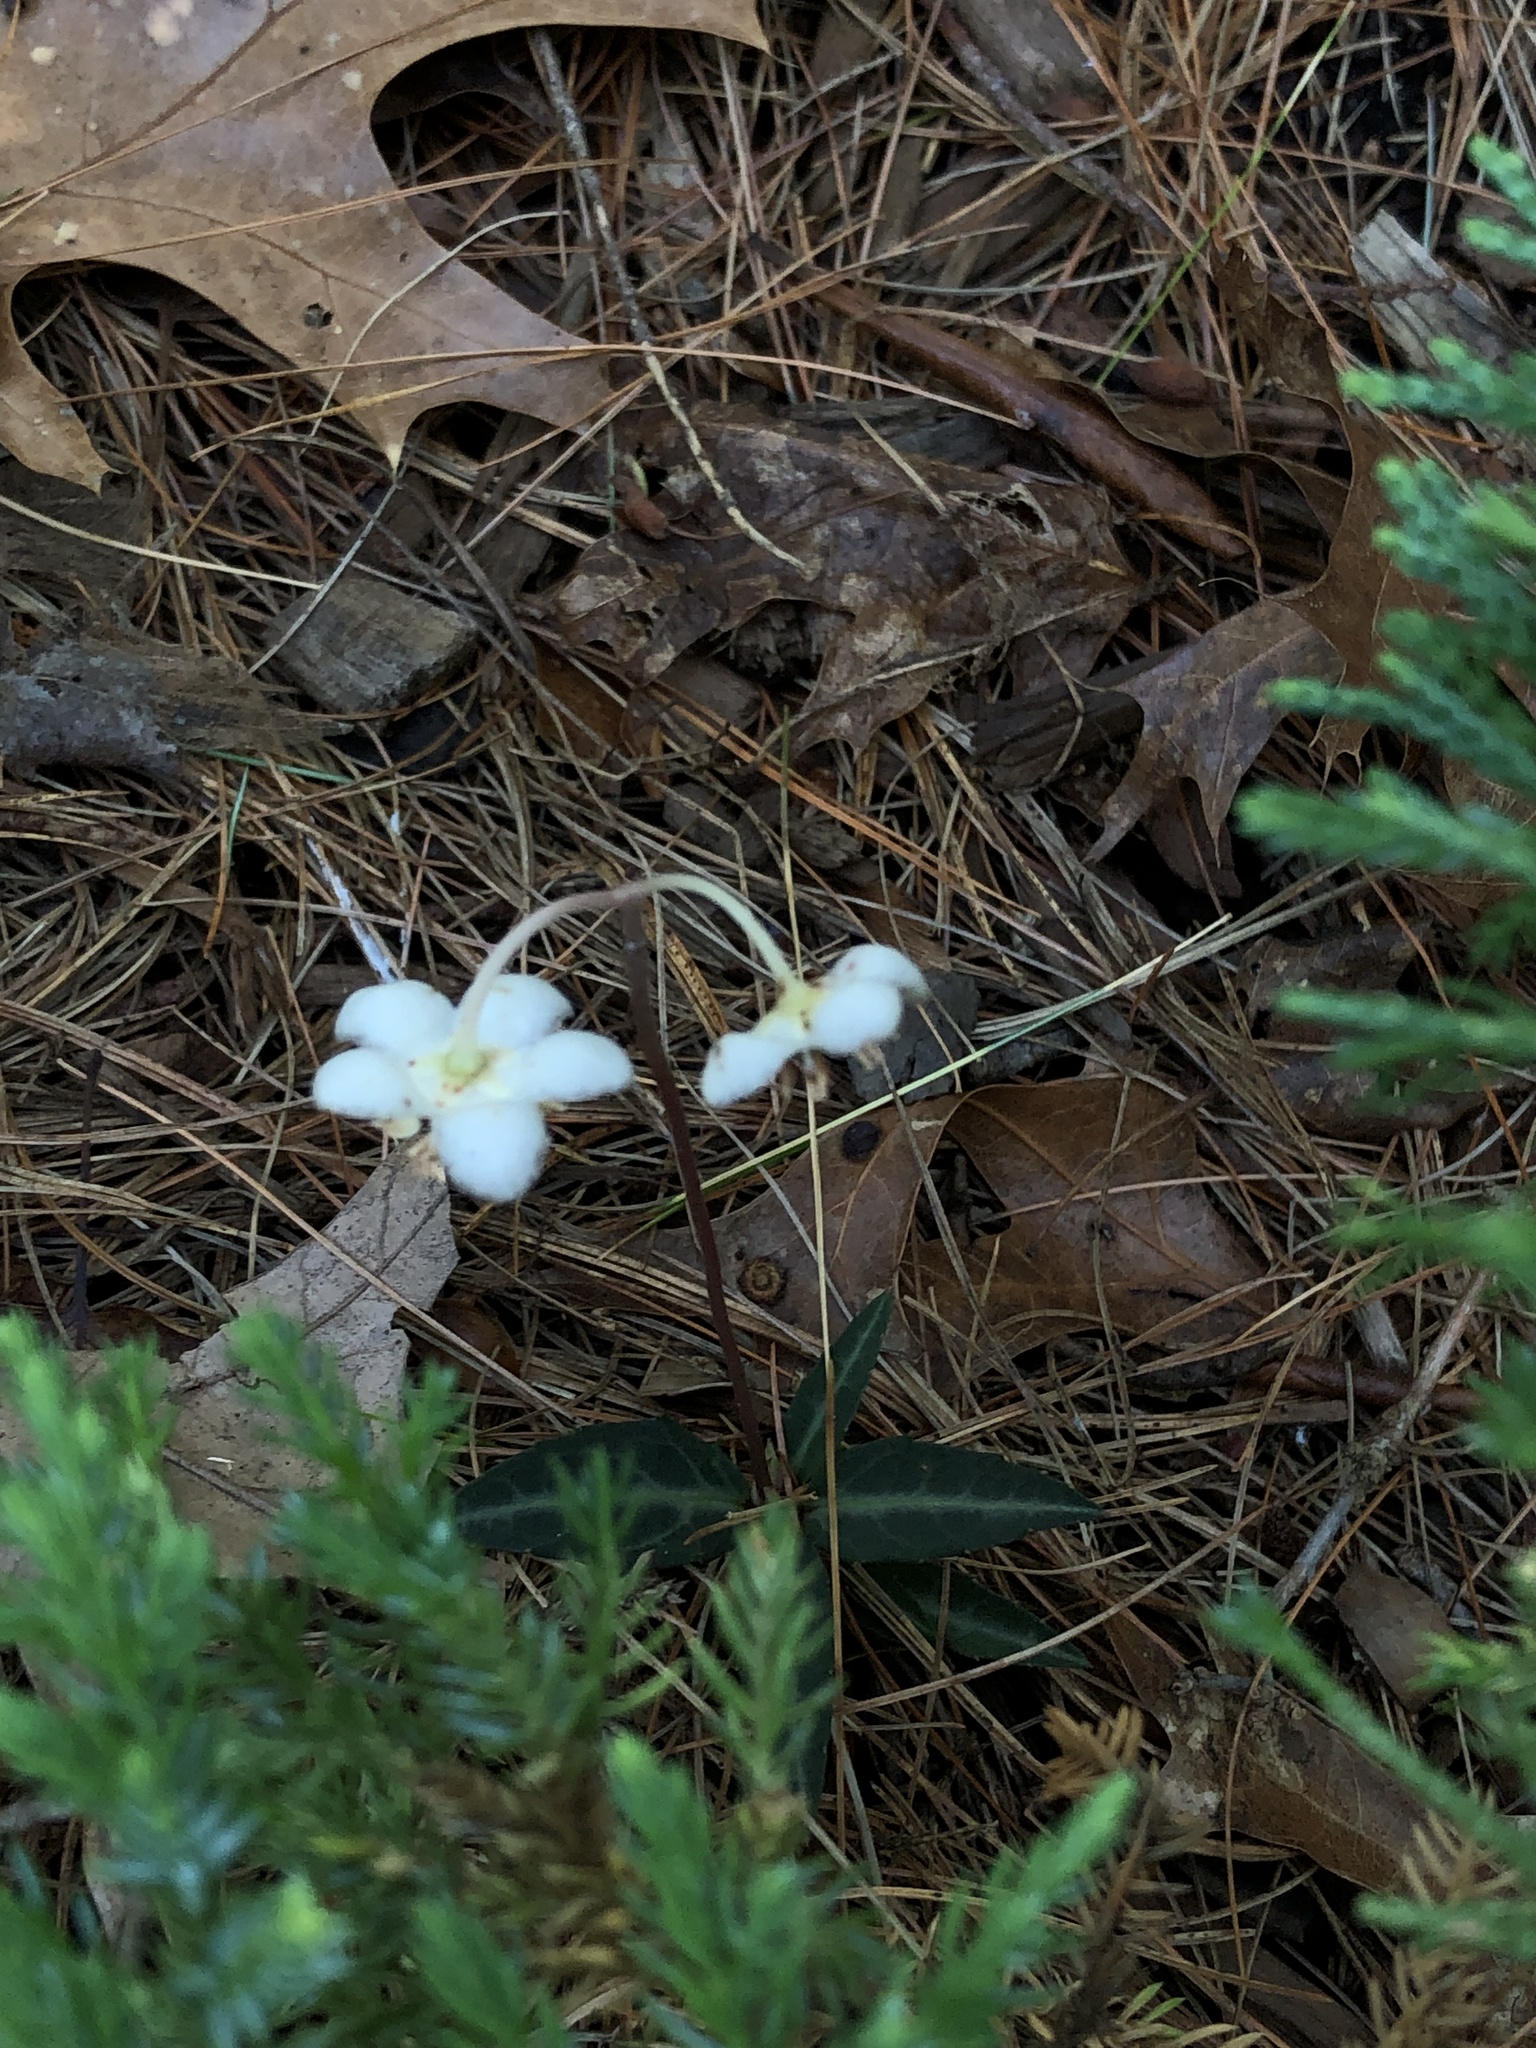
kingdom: Plantae
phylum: Tracheophyta
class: Magnoliopsida
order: Ericales
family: Ericaceae
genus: Chimaphila
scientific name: Chimaphila maculata
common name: Spotted pipsissewa
